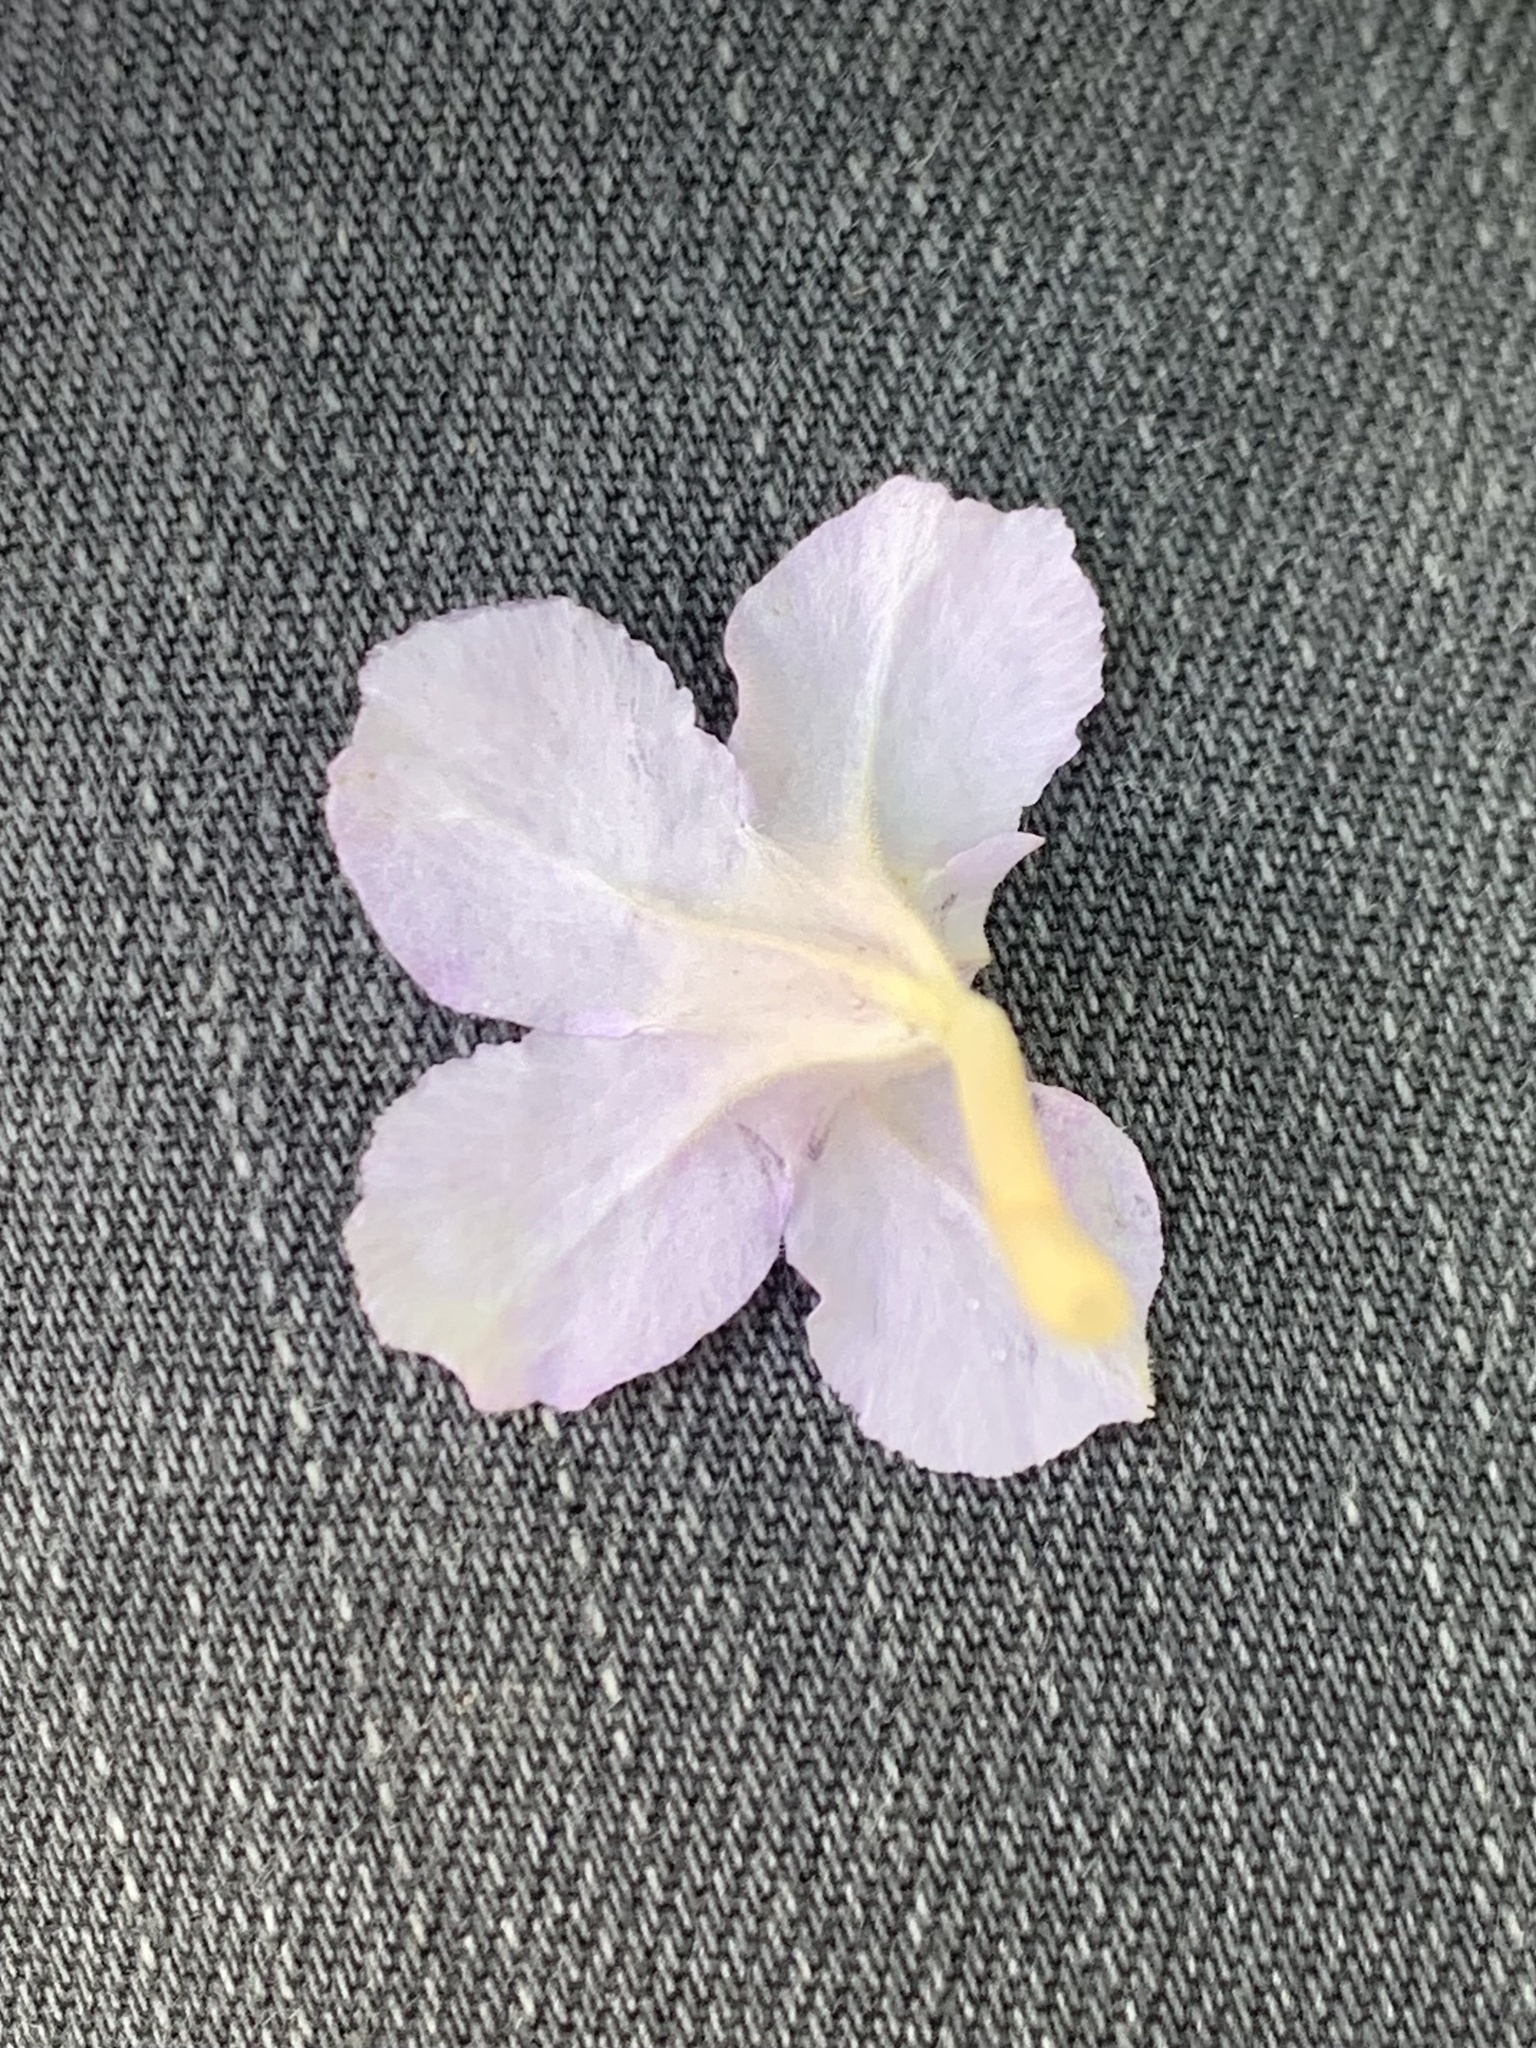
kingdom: Plantae
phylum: Tracheophyta
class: Magnoliopsida
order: Lamiales
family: Acanthaceae
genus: Ruellia
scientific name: Ruellia humilis
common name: Fringe-leaf ruellia
